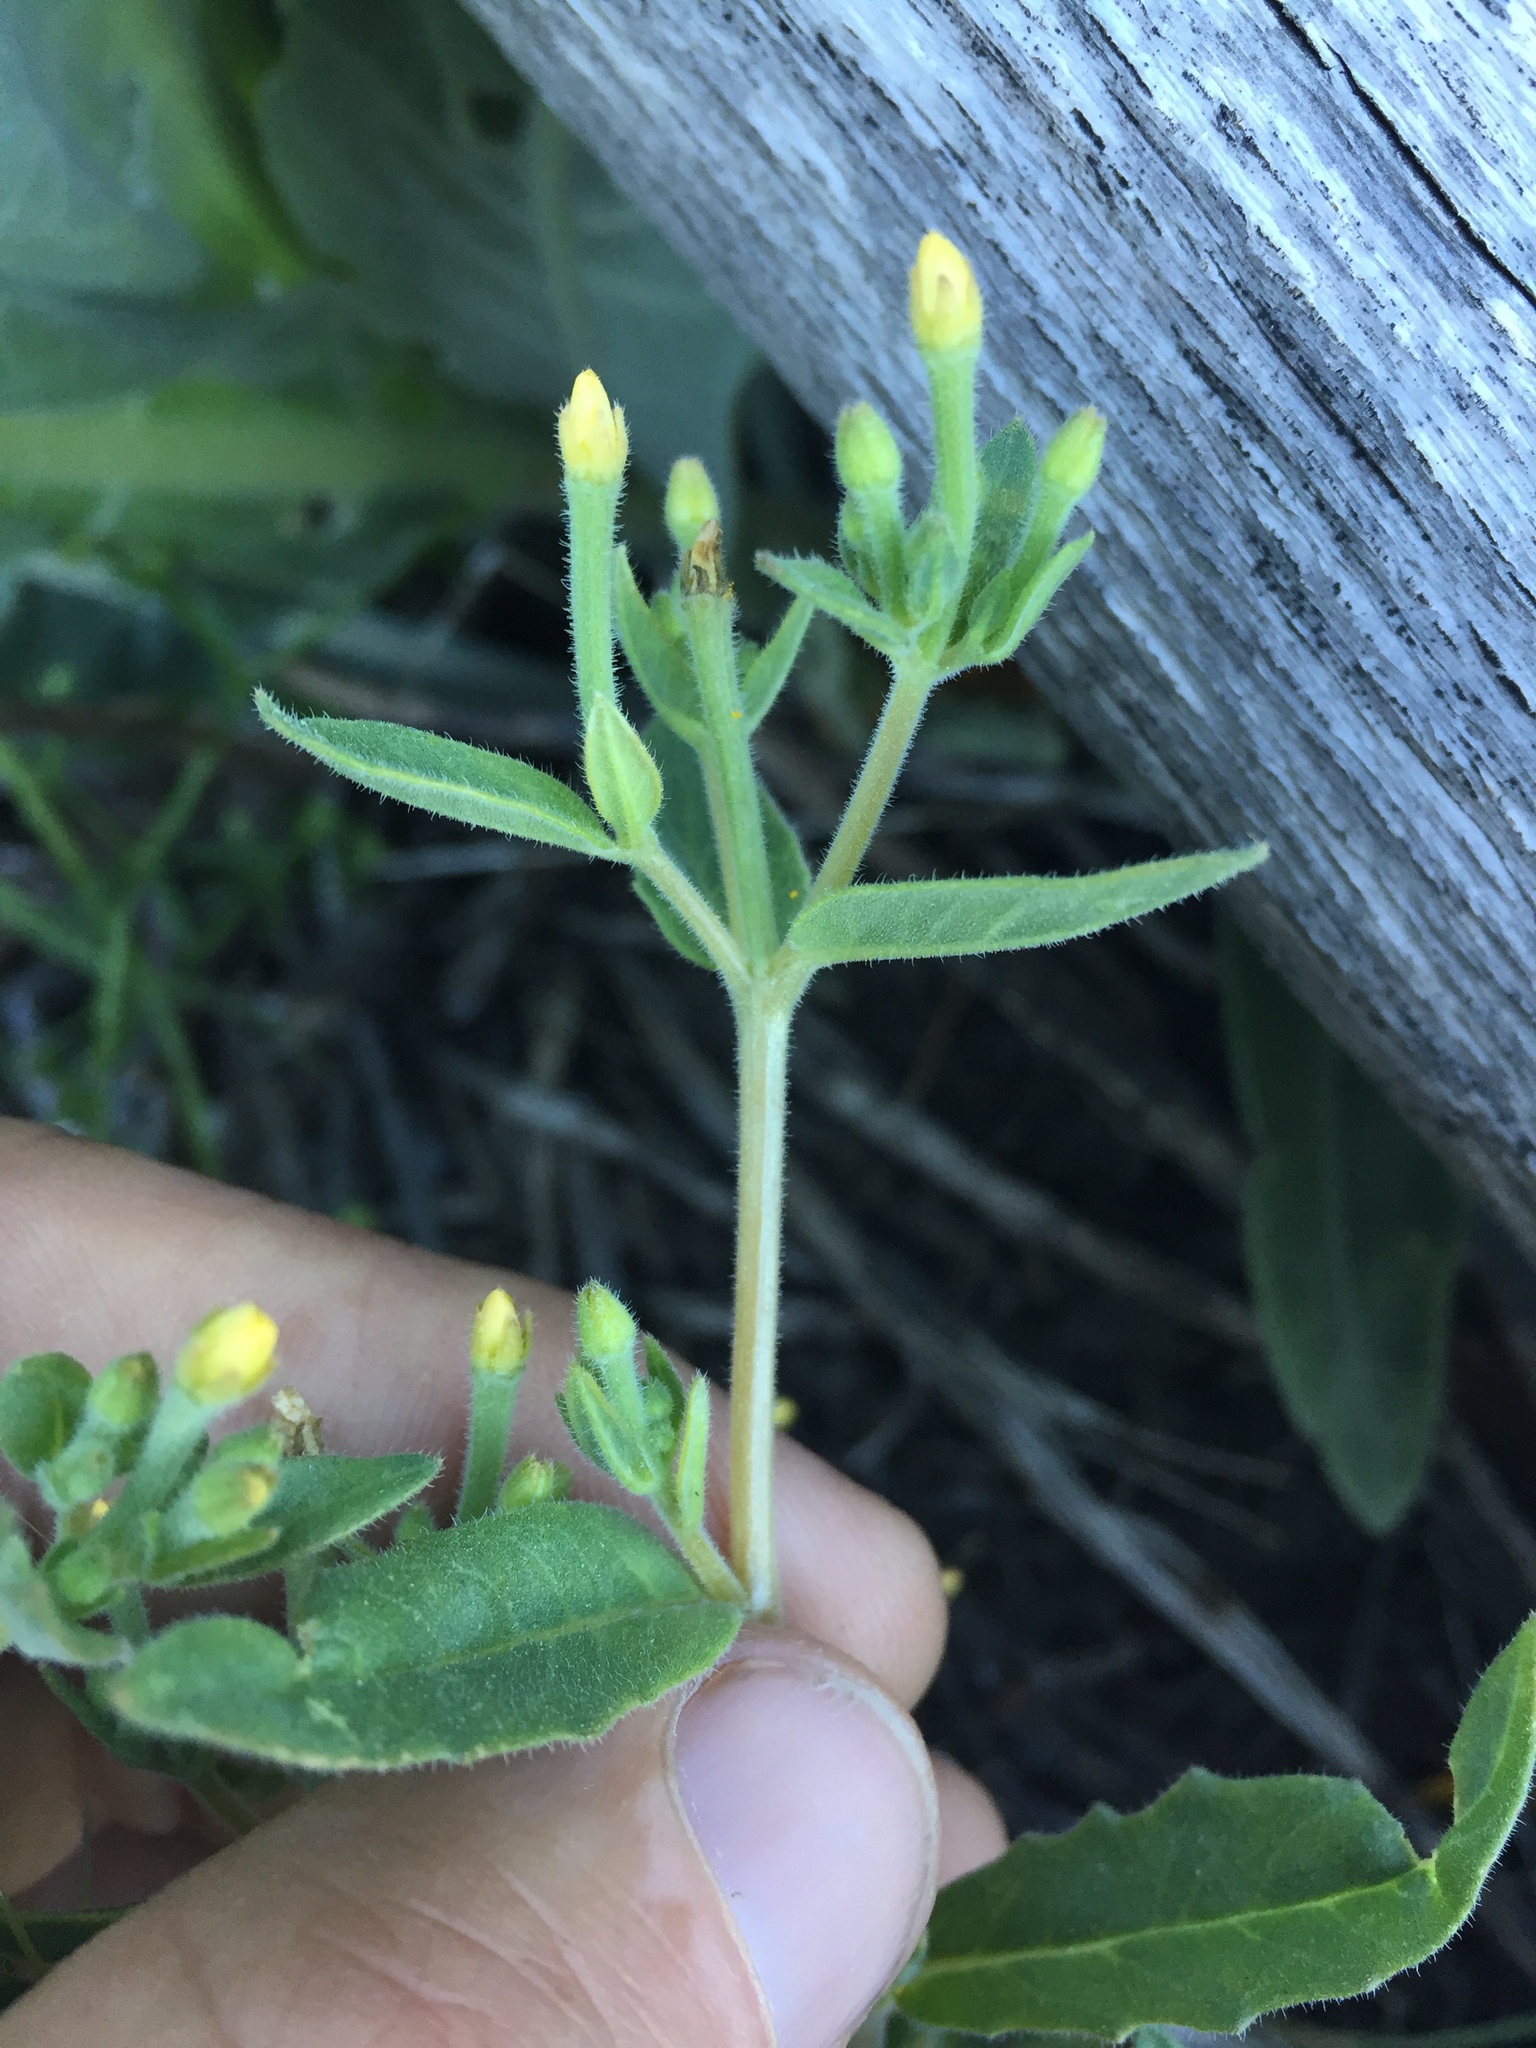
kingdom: Plantae
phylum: Tracheophyta
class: Magnoliopsida
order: Cornales
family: Loasaceae
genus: Mentzelia
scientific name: Mentzelia dispersa
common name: Nada stickleaf
